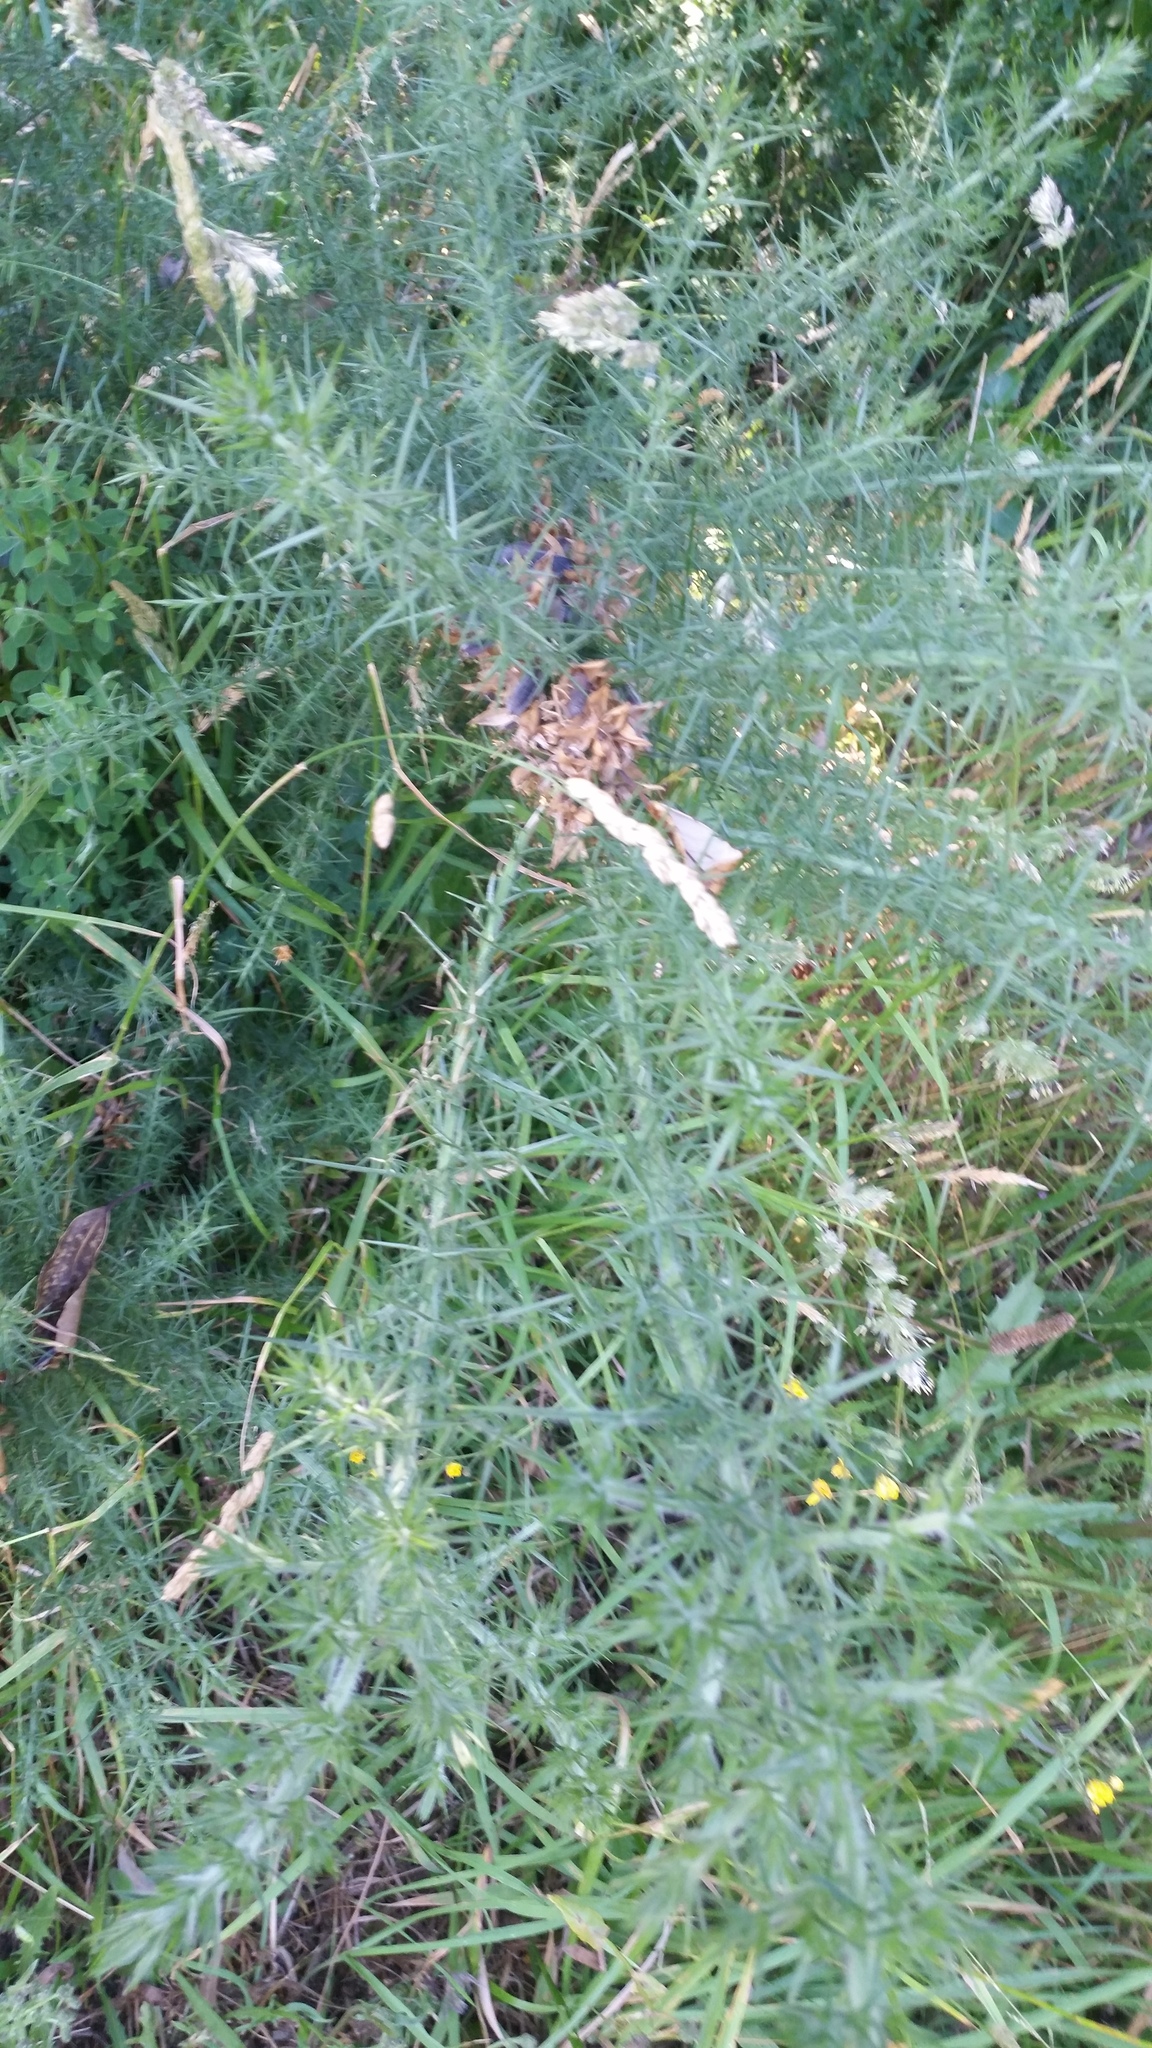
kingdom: Plantae
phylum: Tracheophyta
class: Magnoliopsida
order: Fabales
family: Fabaceae
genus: Ulex
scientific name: Ulex europaeus
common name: Common gorse
